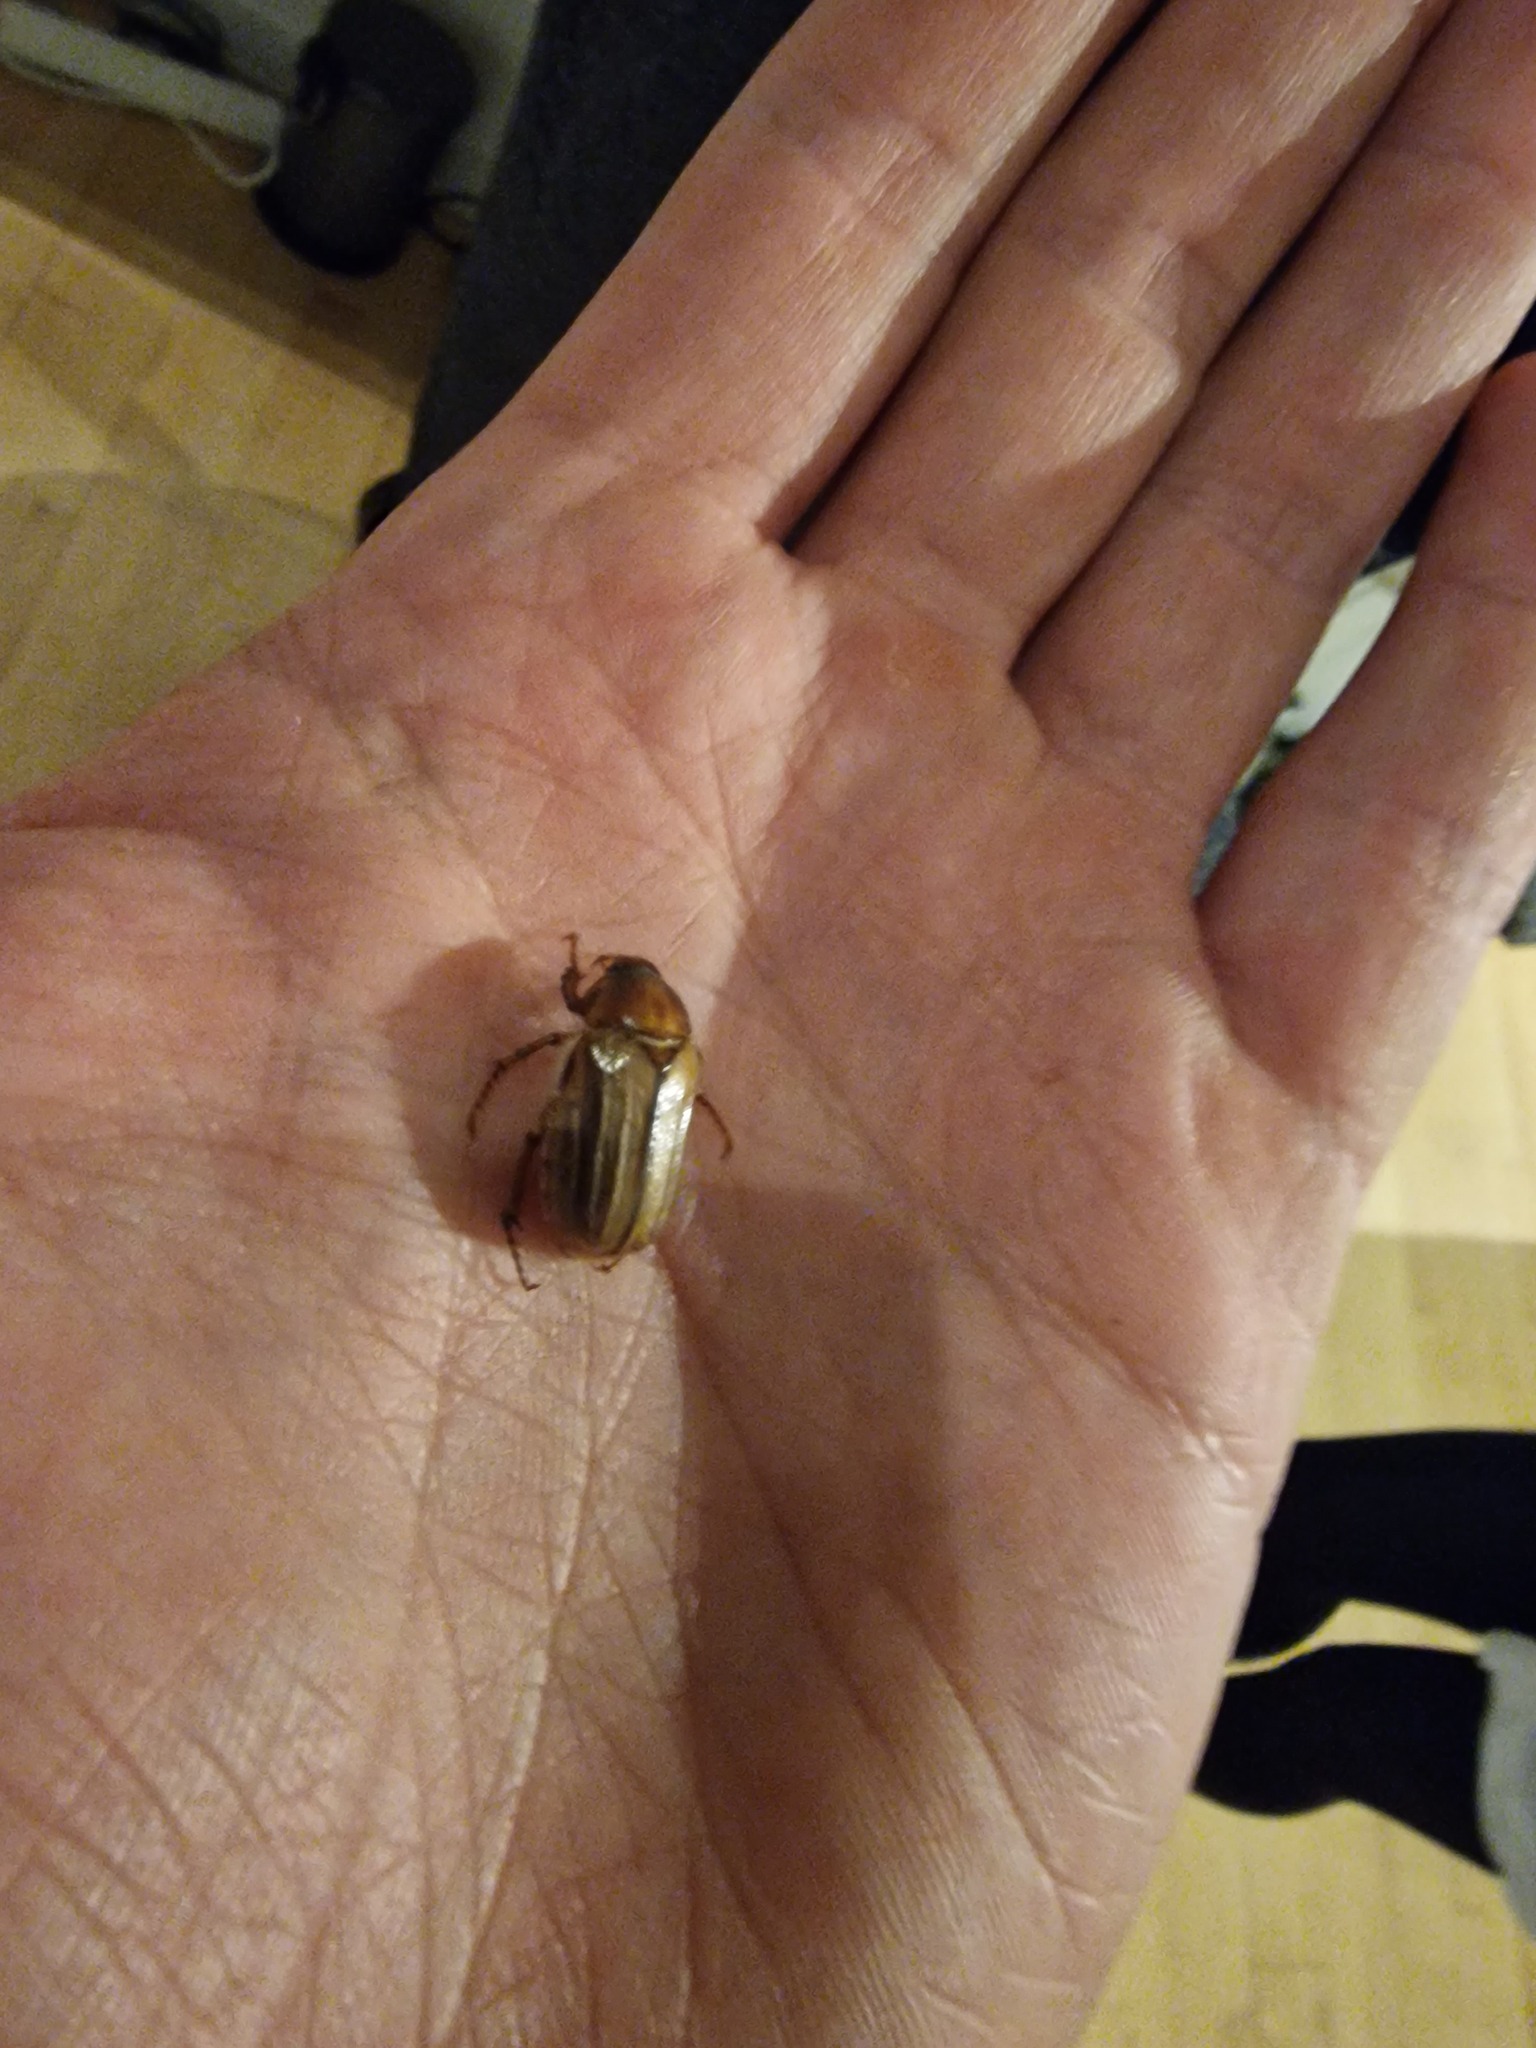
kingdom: Animalia
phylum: Arthropoda
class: Insecta
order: Coleoptera
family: Scarabaeidae
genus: Amphimallon
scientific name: Amphimallon solstitiale
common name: Summer chafer
